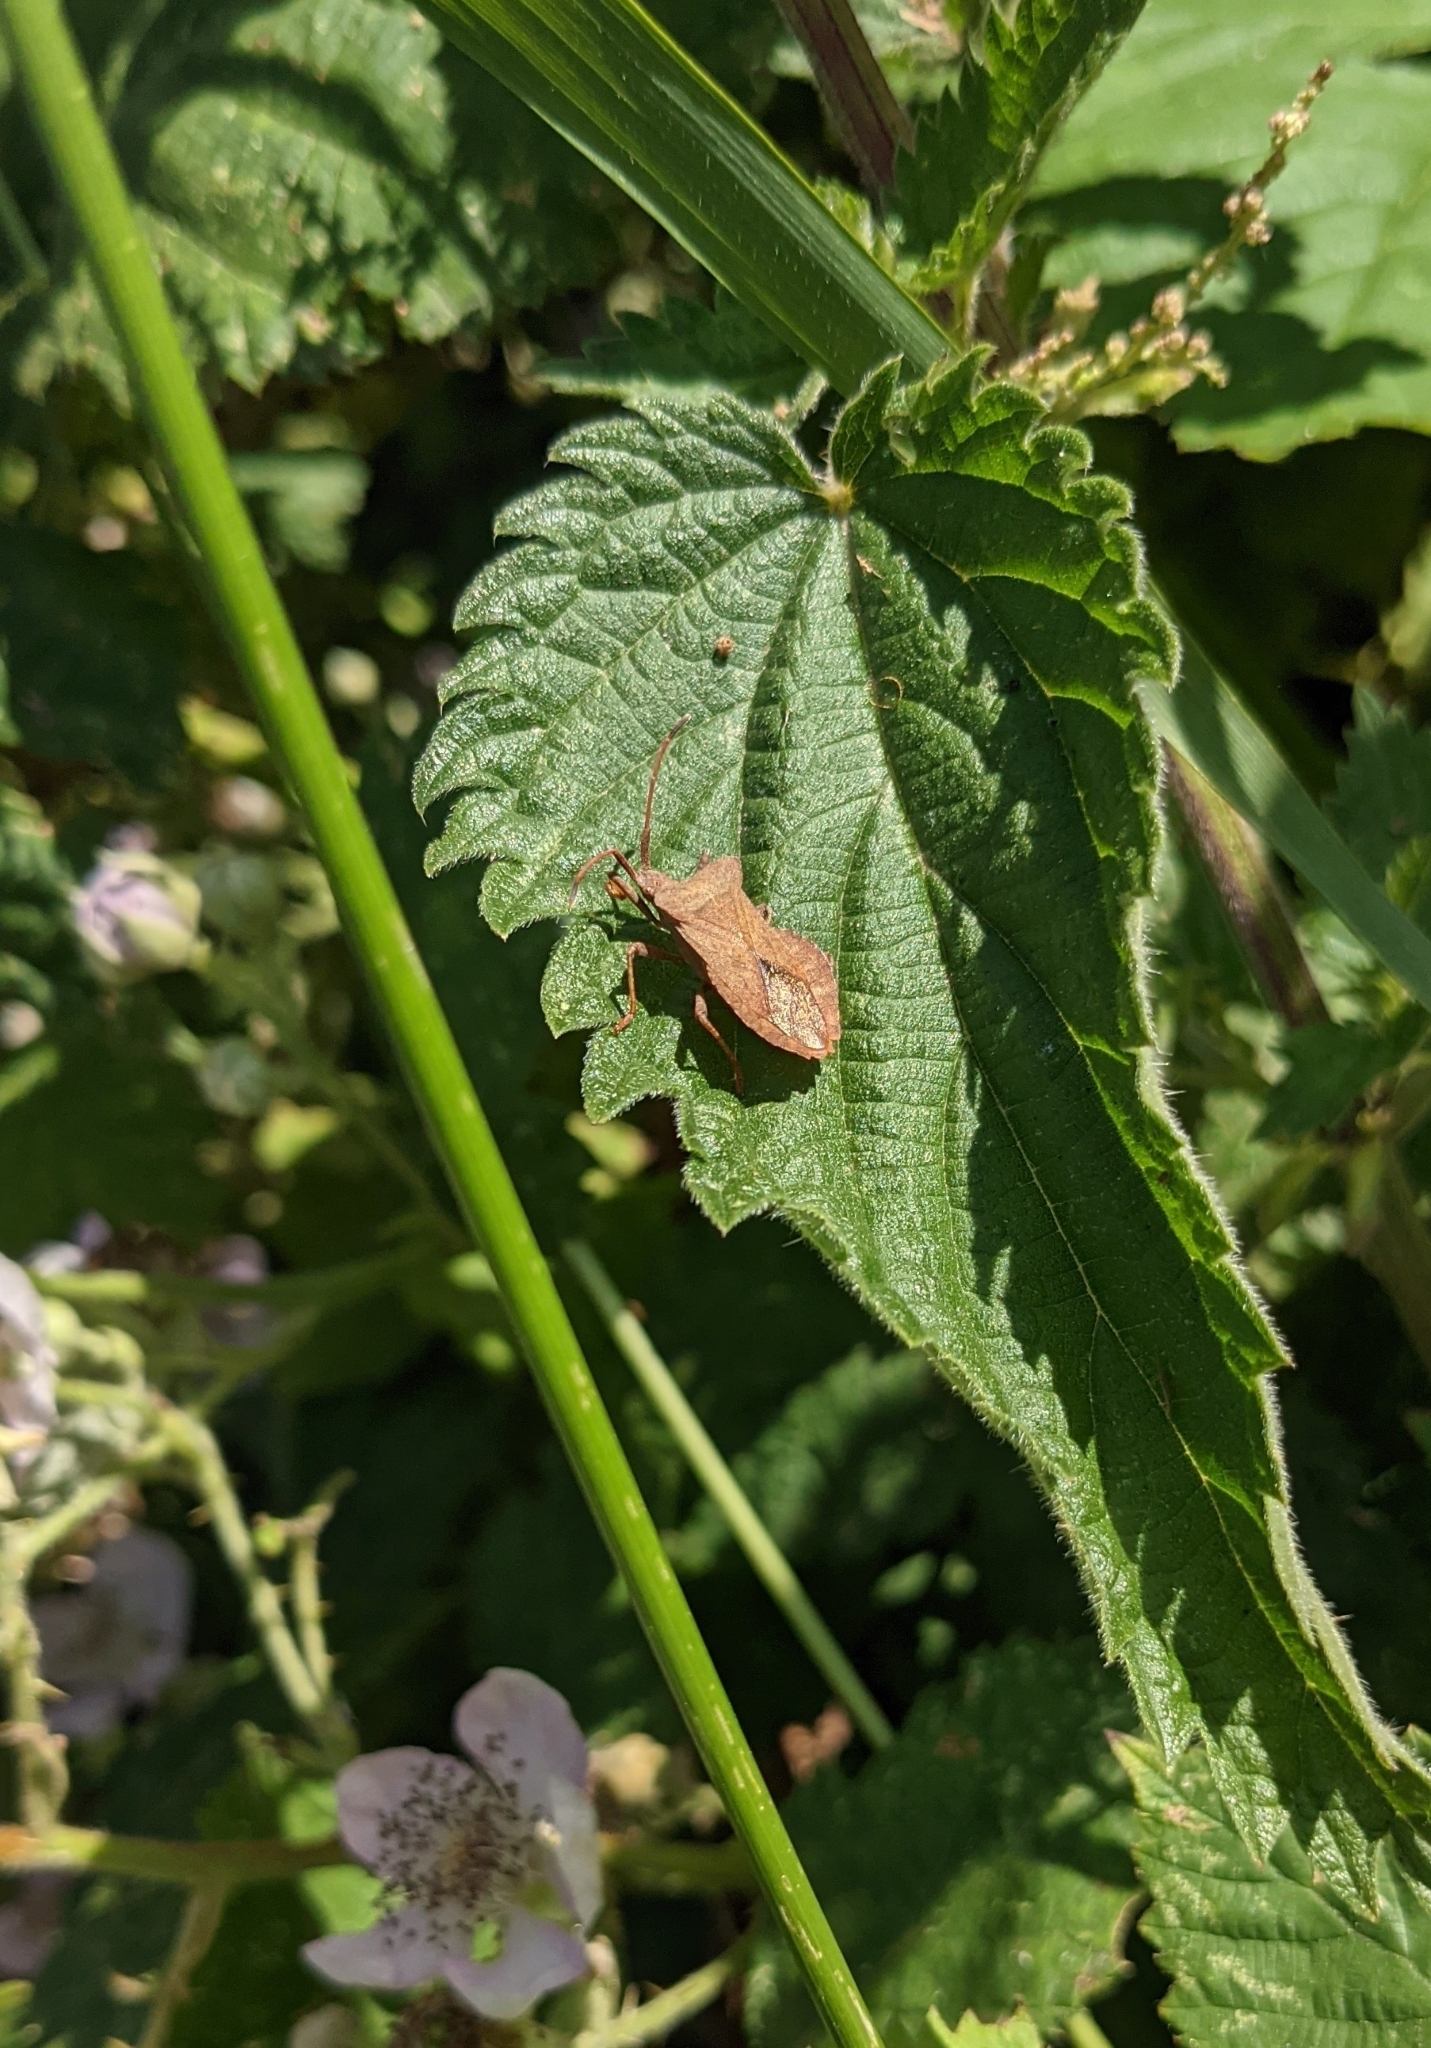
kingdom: Animalia
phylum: Arthropoda
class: Insecta
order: Hemiptera
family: Coreidae
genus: Coreus
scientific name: Coreus marginatus
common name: Dock bug
